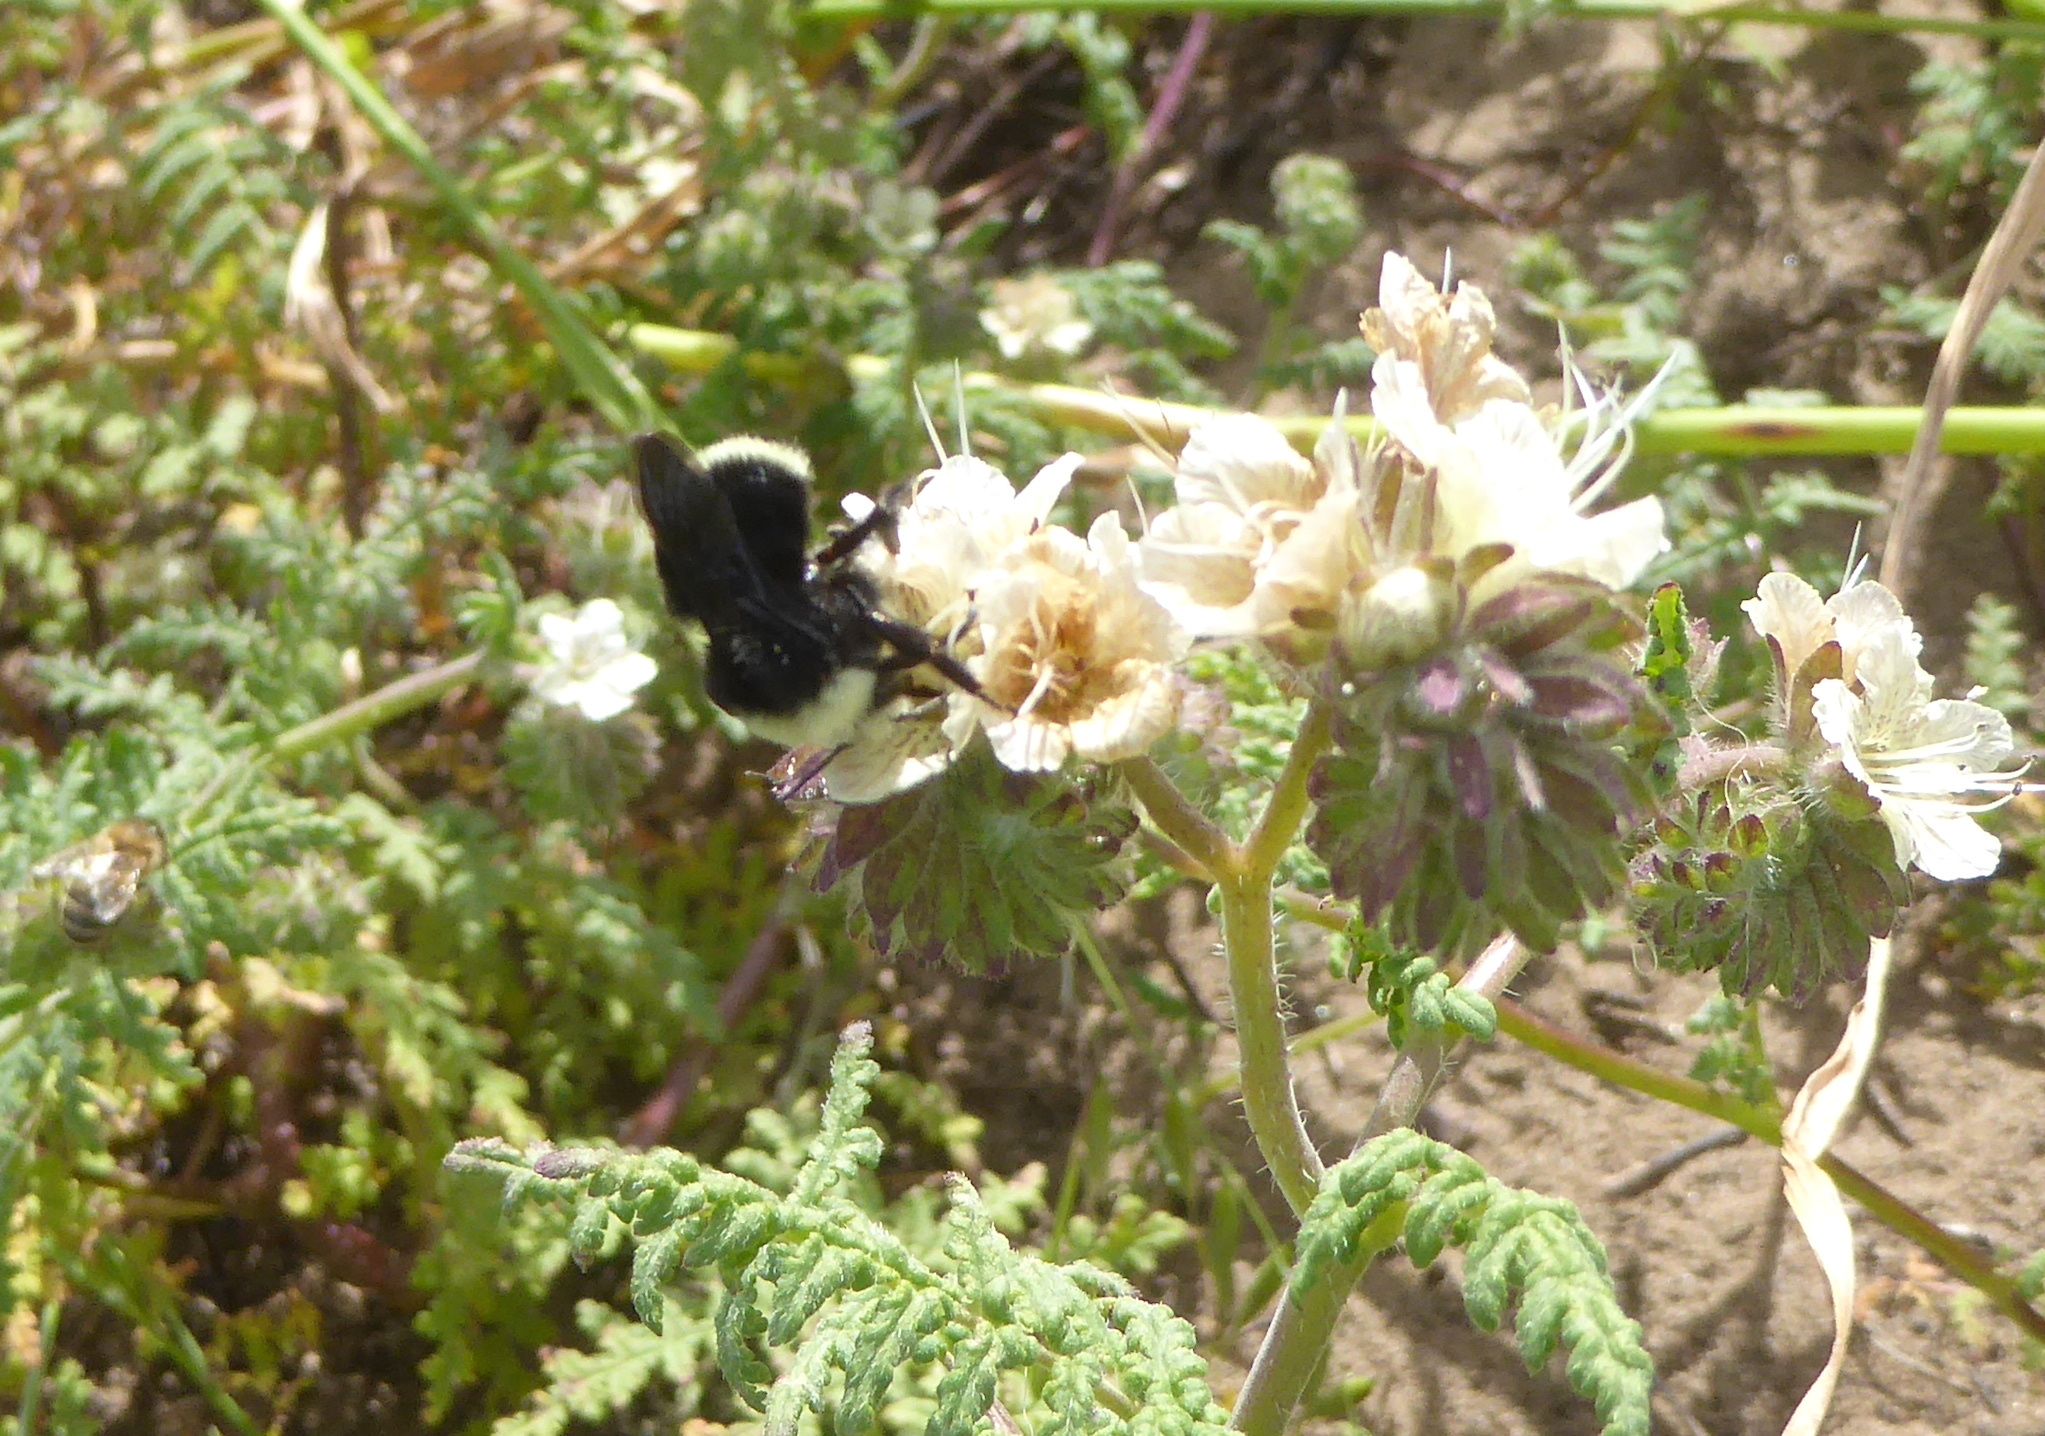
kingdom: Animalia
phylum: Arthropoda
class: Insecta
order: Hymenoptera
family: Apidae
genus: Pyrobombus
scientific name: Pyrobombus
